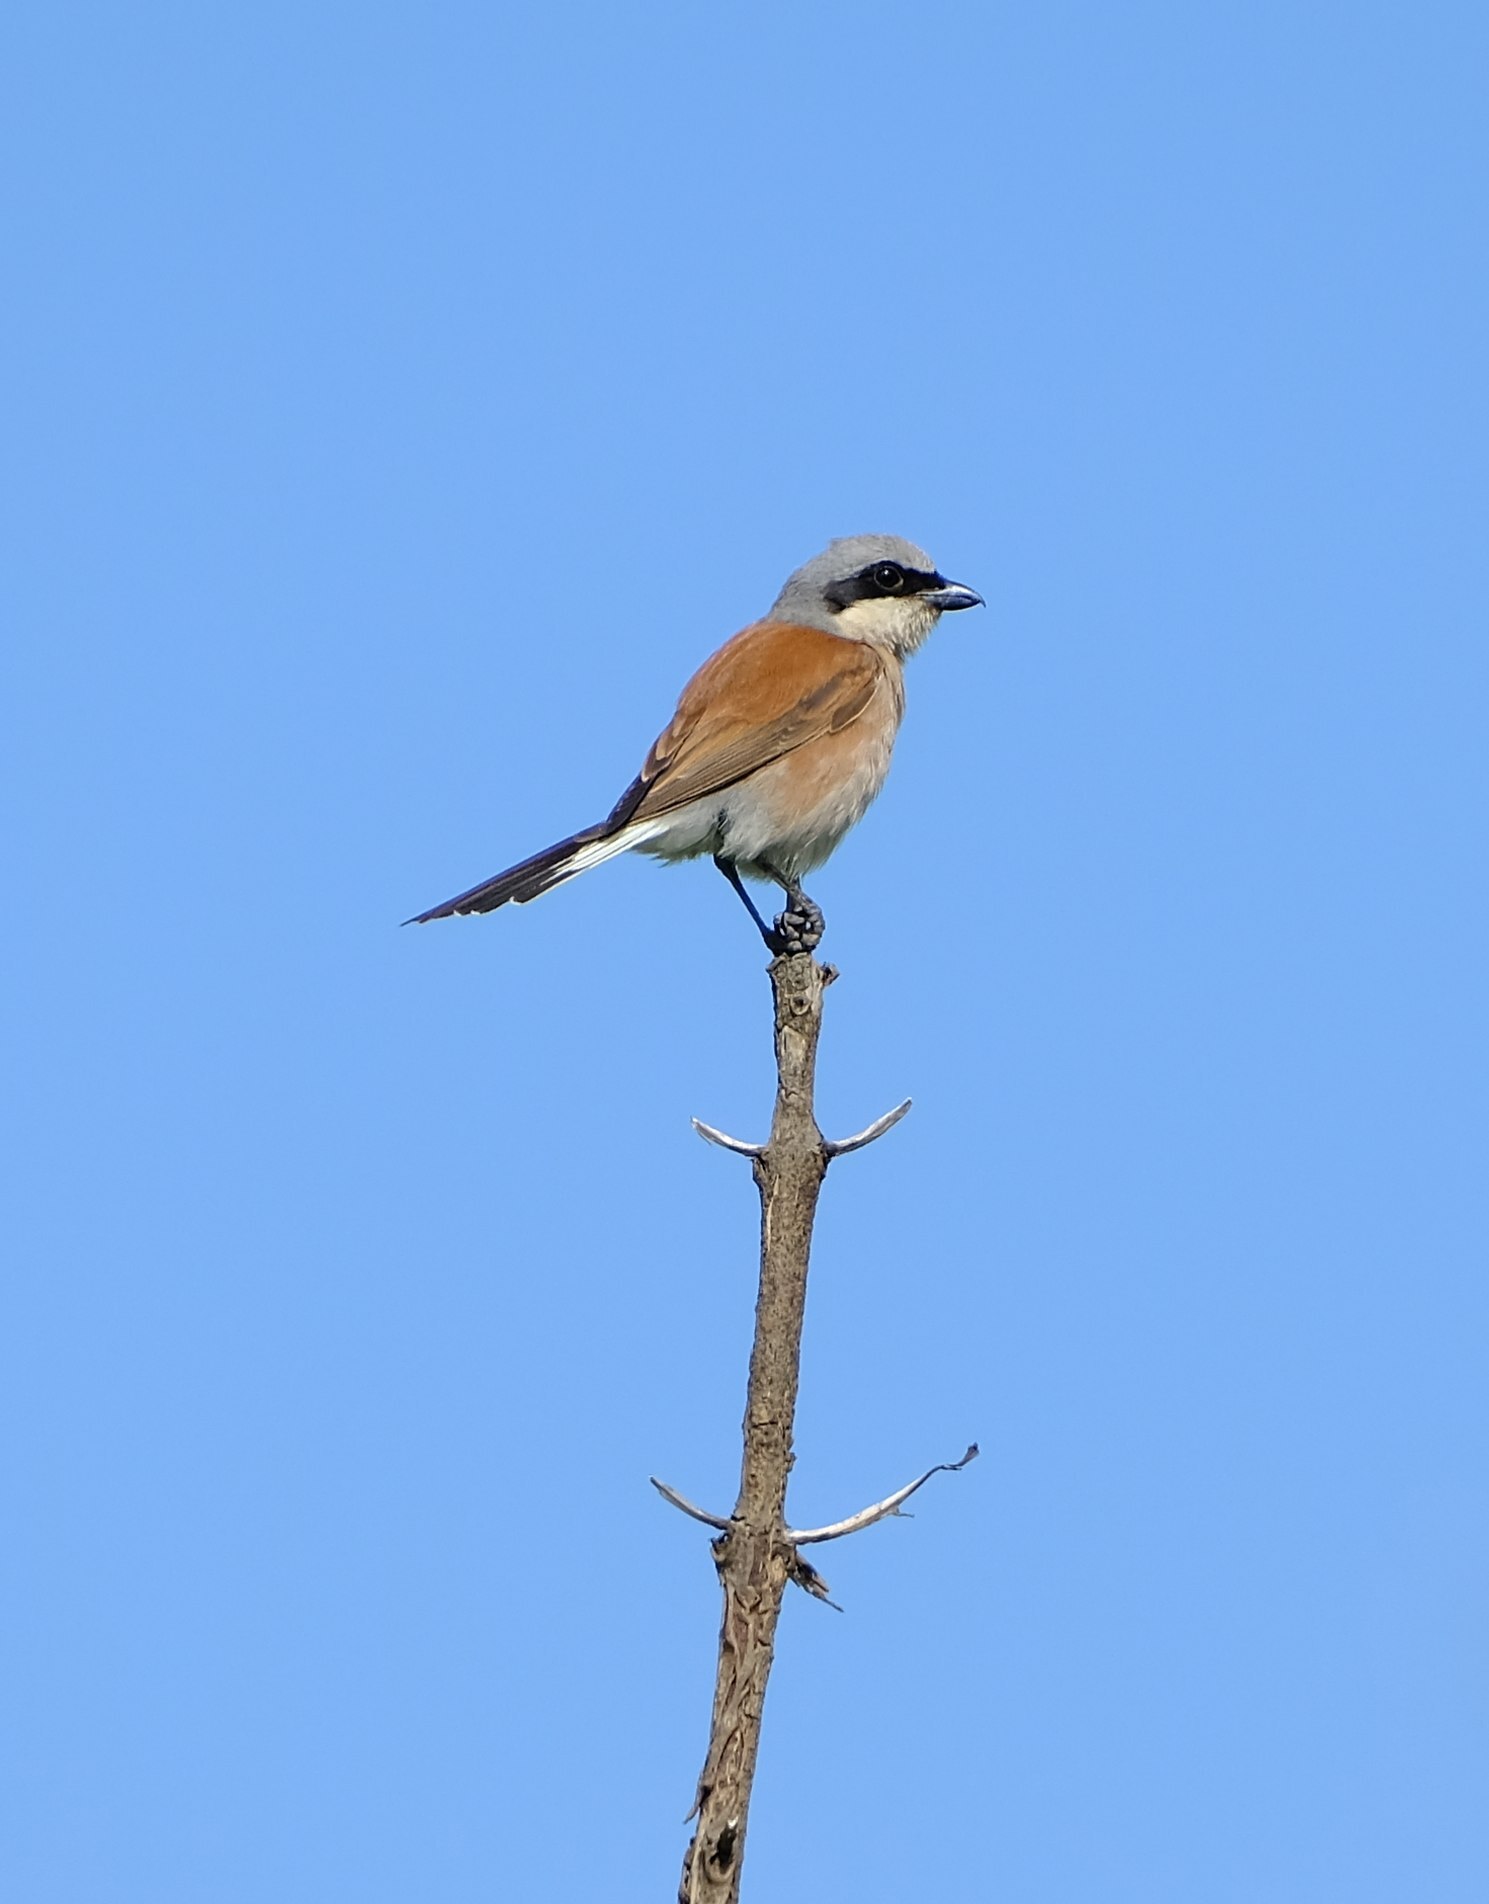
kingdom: Animalia
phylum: Chordata
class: Aves
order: Passeriformes
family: Laniidae
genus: Lanius
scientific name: Lanius collurio
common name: Red-backed shrike
